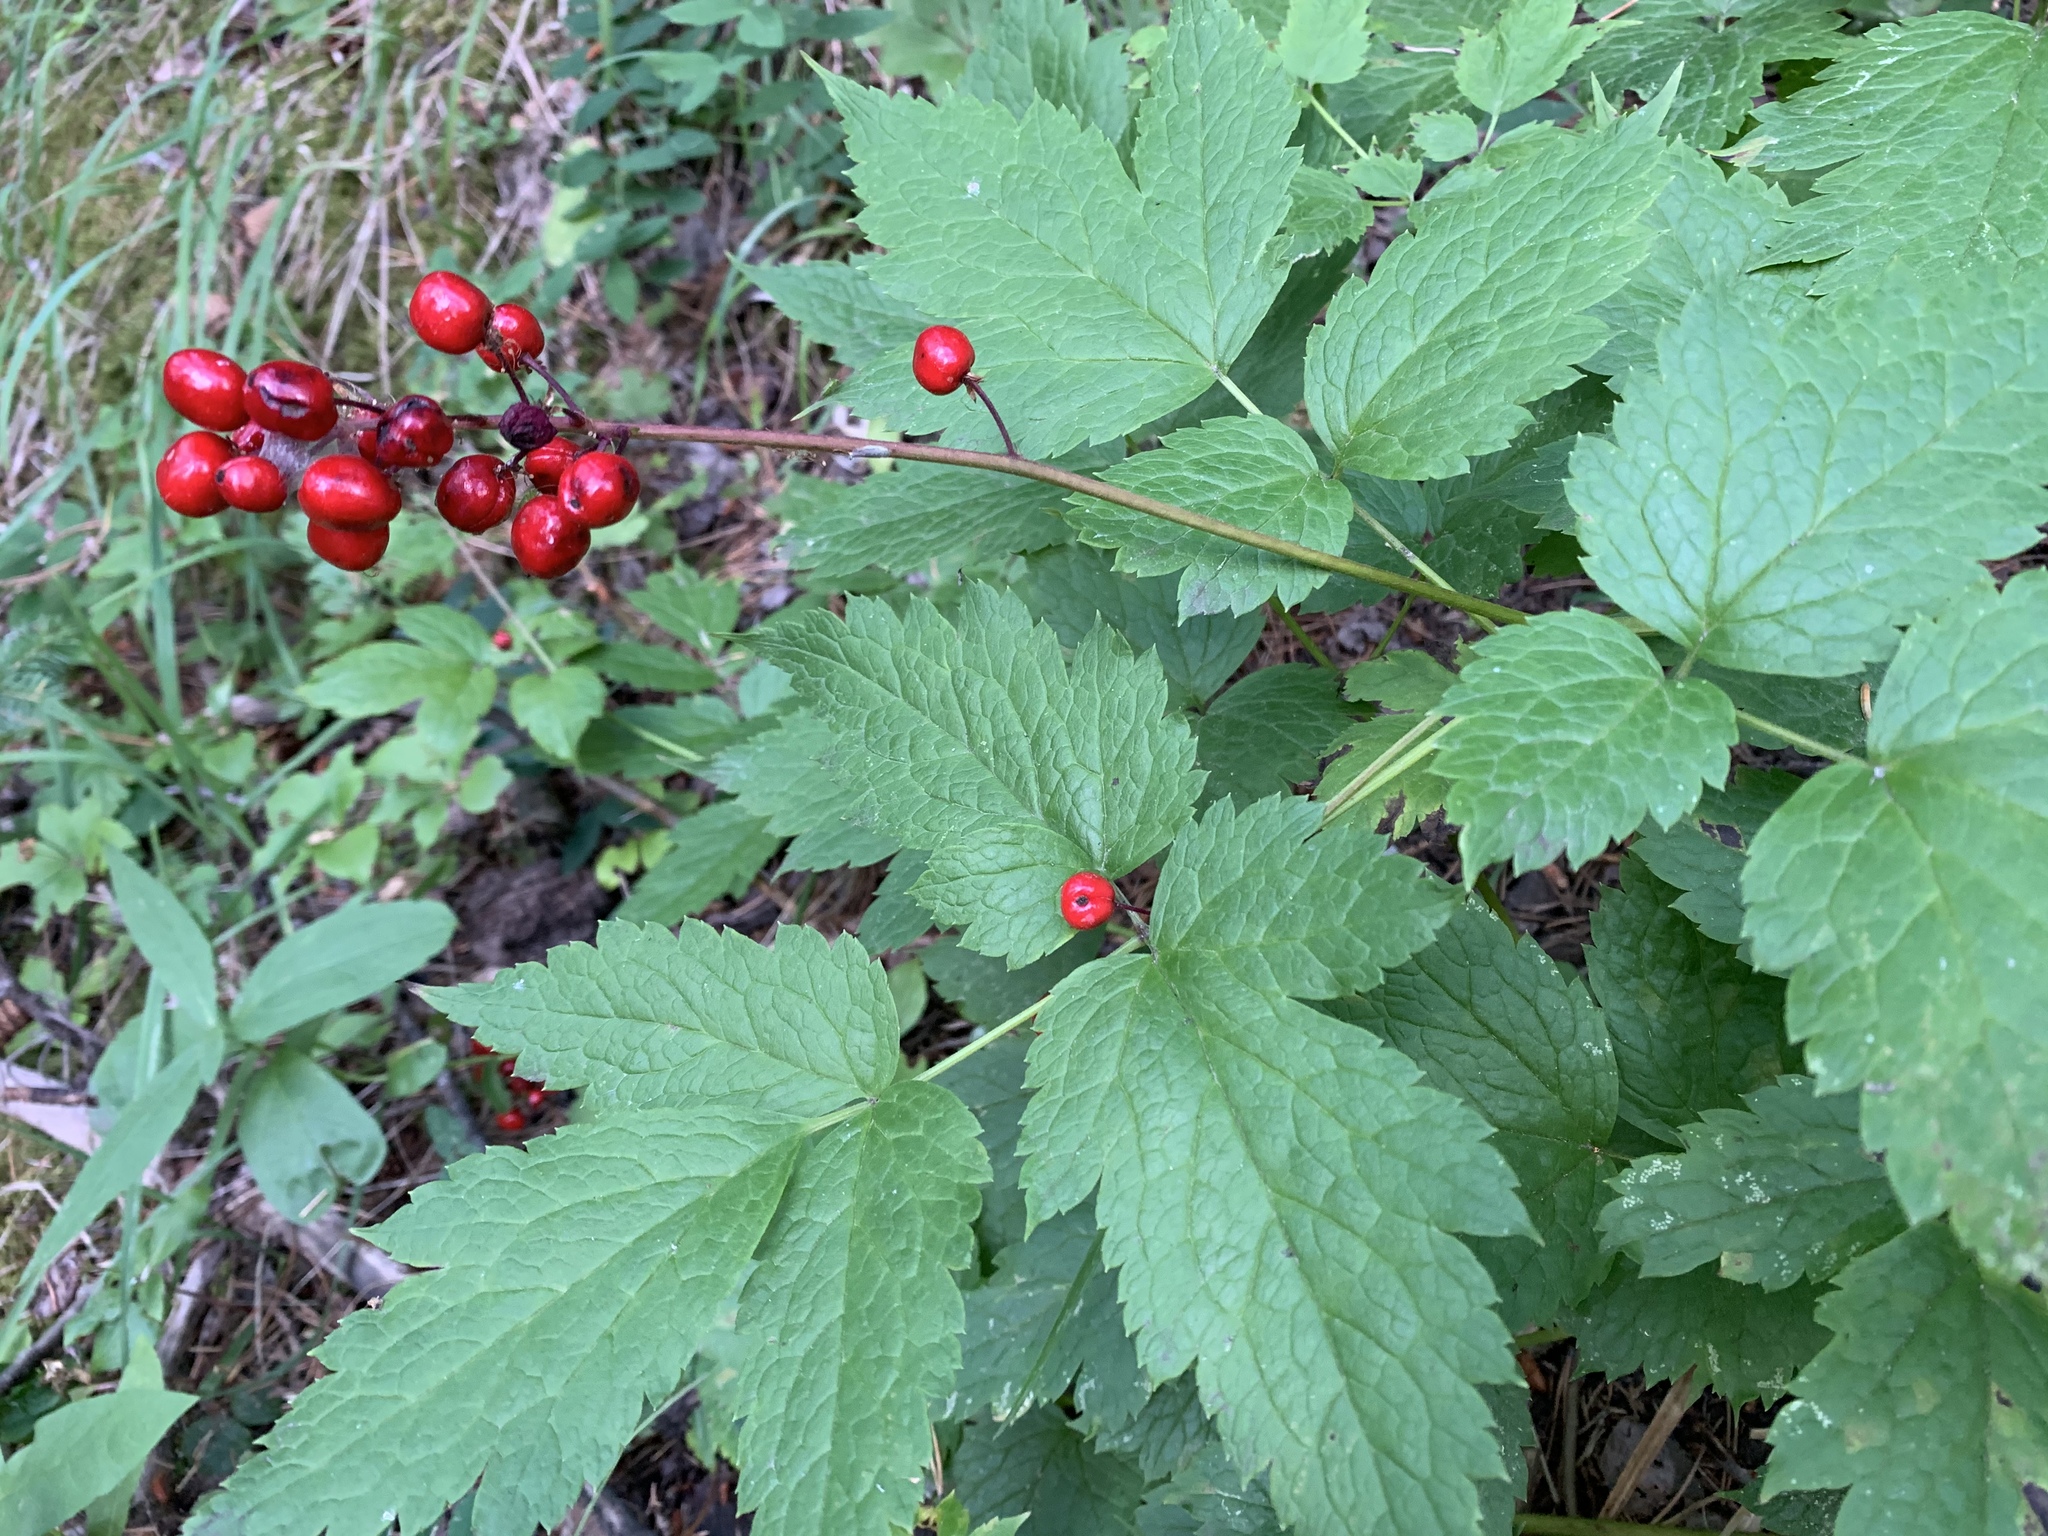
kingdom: Plantae
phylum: Tracheophyta
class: Magnoliopsida
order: Ranunculales
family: Ranunculaceae
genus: Actaea
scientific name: Actaea rubra
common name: Red baneberry
